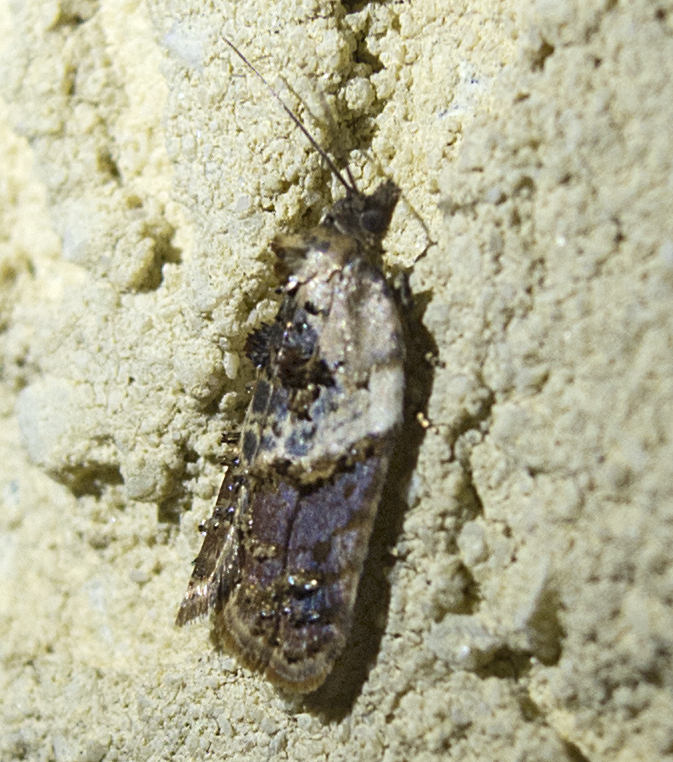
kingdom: Animalia
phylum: Arthropoda
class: Insecta
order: Lepidoptera
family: Tortricidae
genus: Acleris
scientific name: Acleris variegana
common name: Garden rose tortrix
